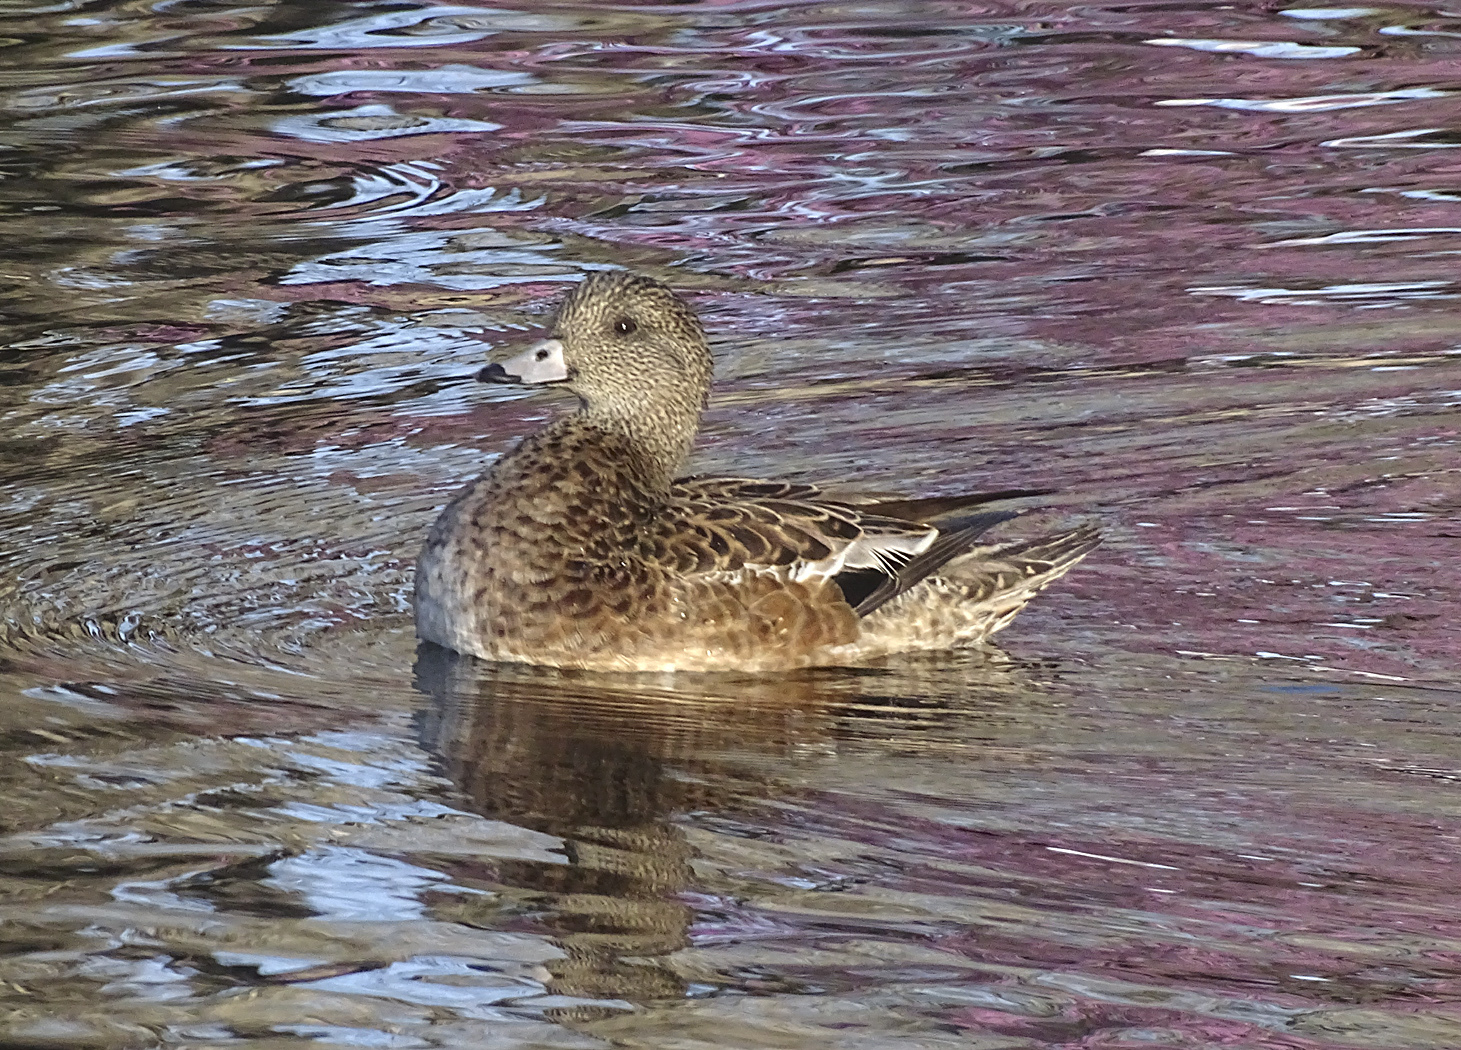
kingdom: Animalia
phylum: Chordata
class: Aves
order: Anseriformes
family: Anatidae
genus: Mareca
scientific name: Mareca americana
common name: American wigeon
